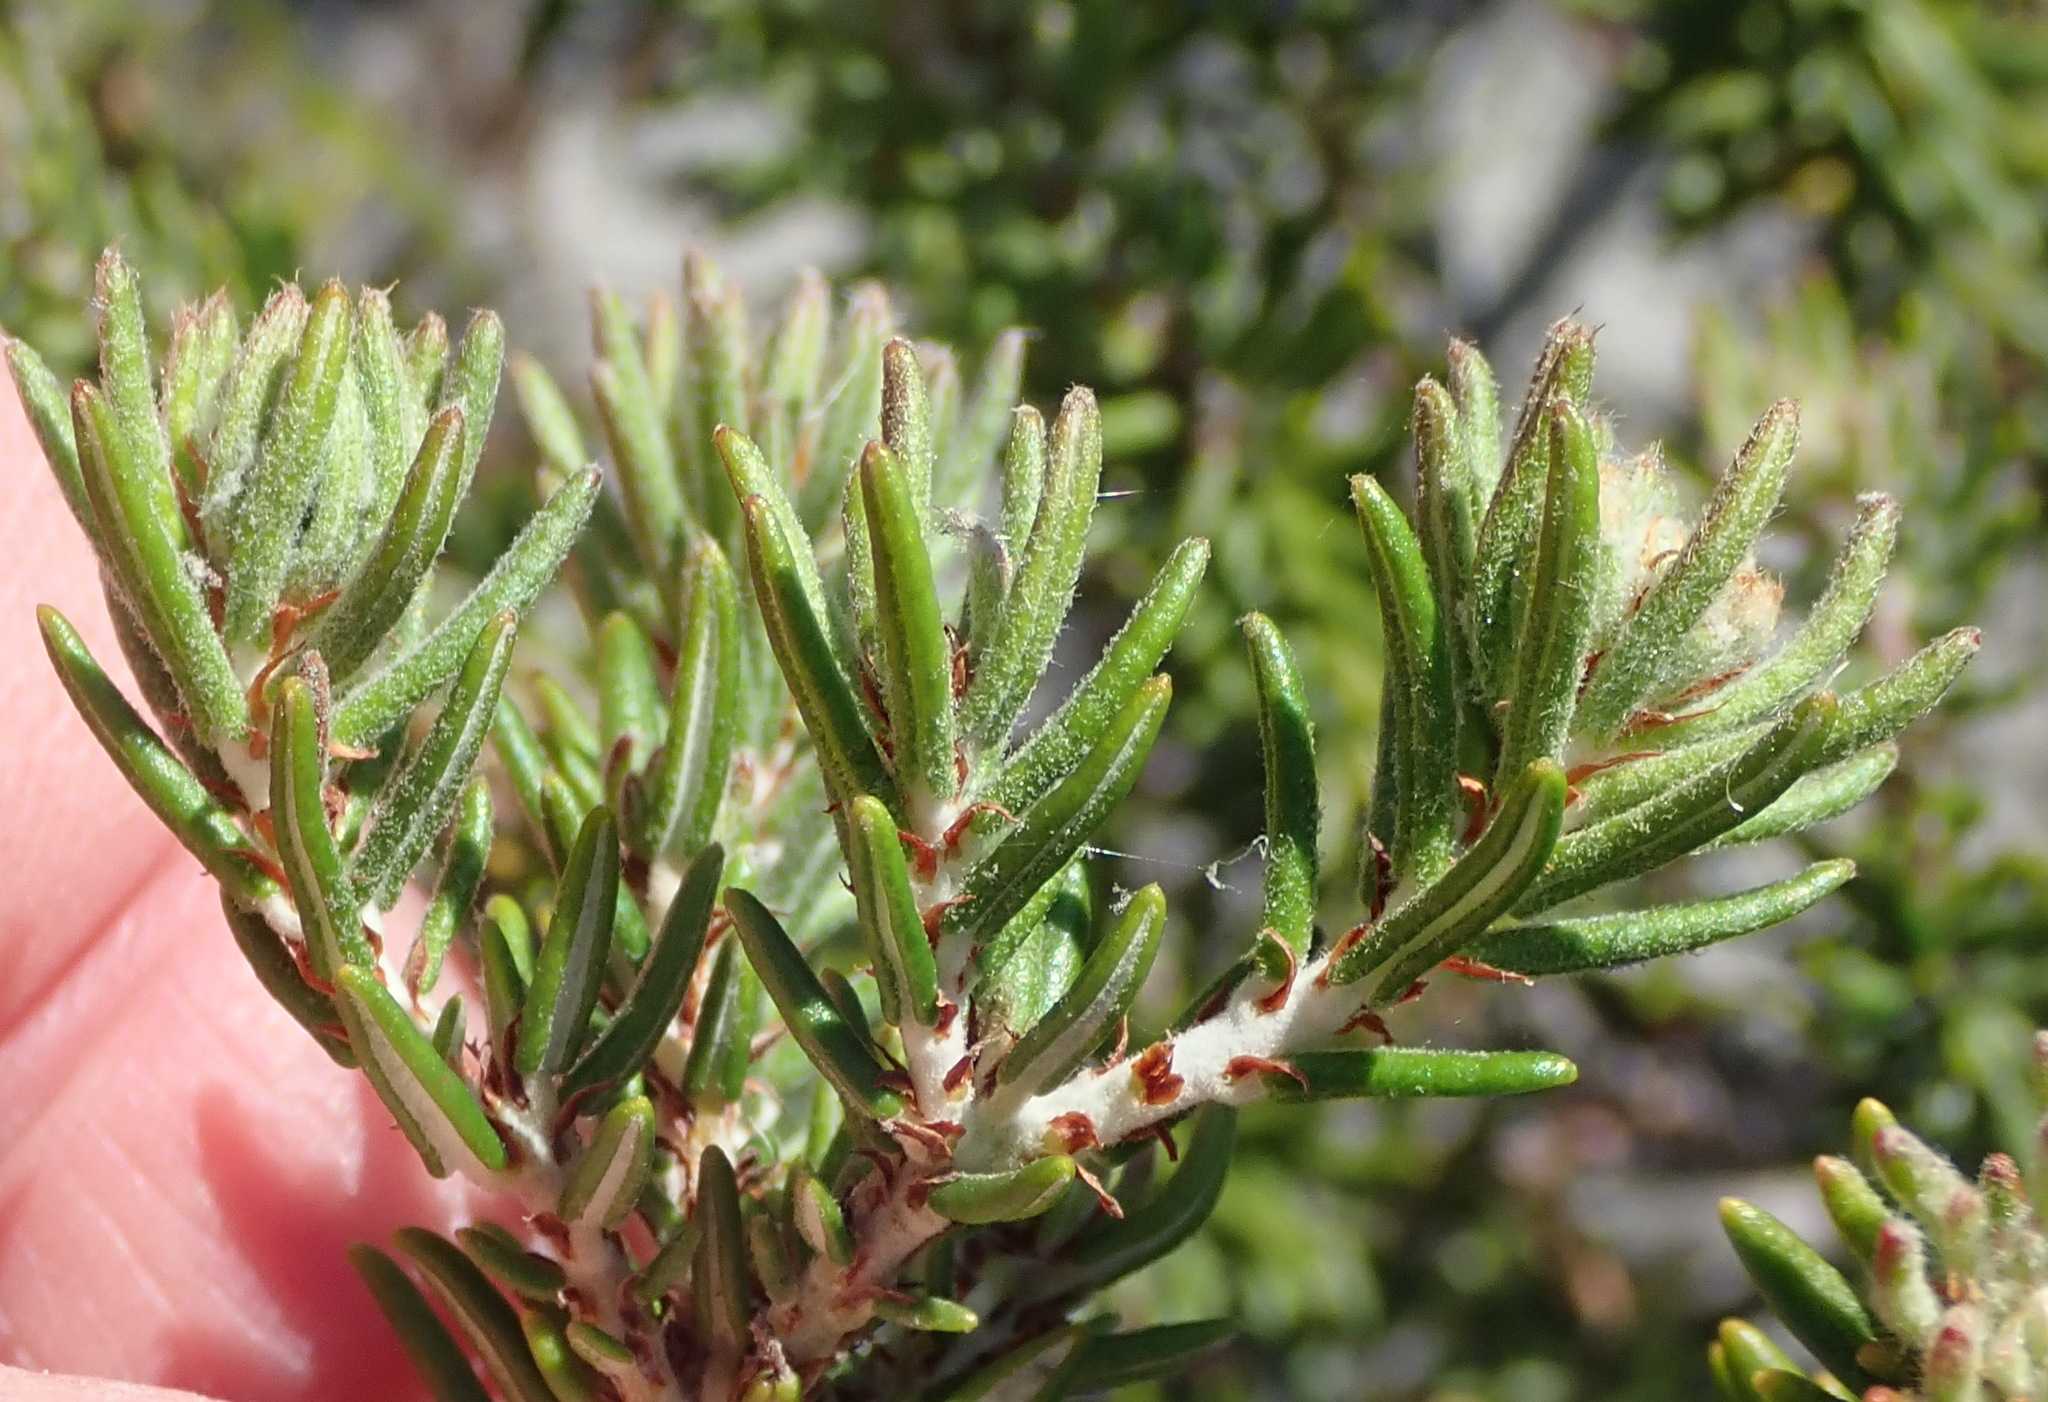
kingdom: Plantae
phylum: Tracheophyta
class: Magnoliopsida
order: Rosales
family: Rhamnaceae
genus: Trichocephalus
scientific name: Trichocephalus stipularis
